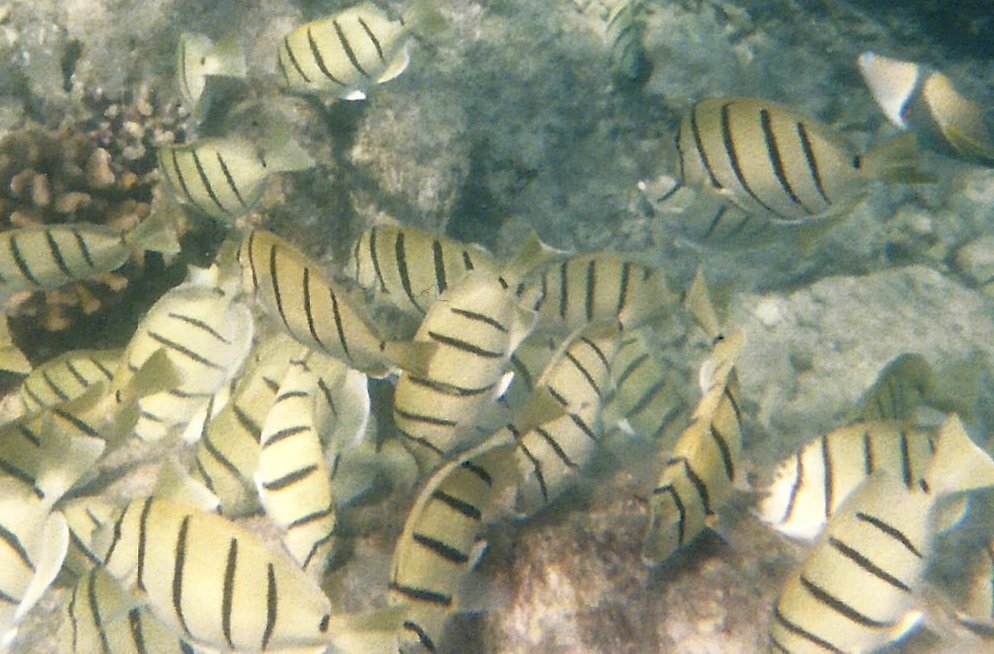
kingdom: Animalia
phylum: Chordata
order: Perciformes
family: Acanthuridae
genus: Acanthurus
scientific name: Acanthurus triostegus
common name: Convict surgeonfish
